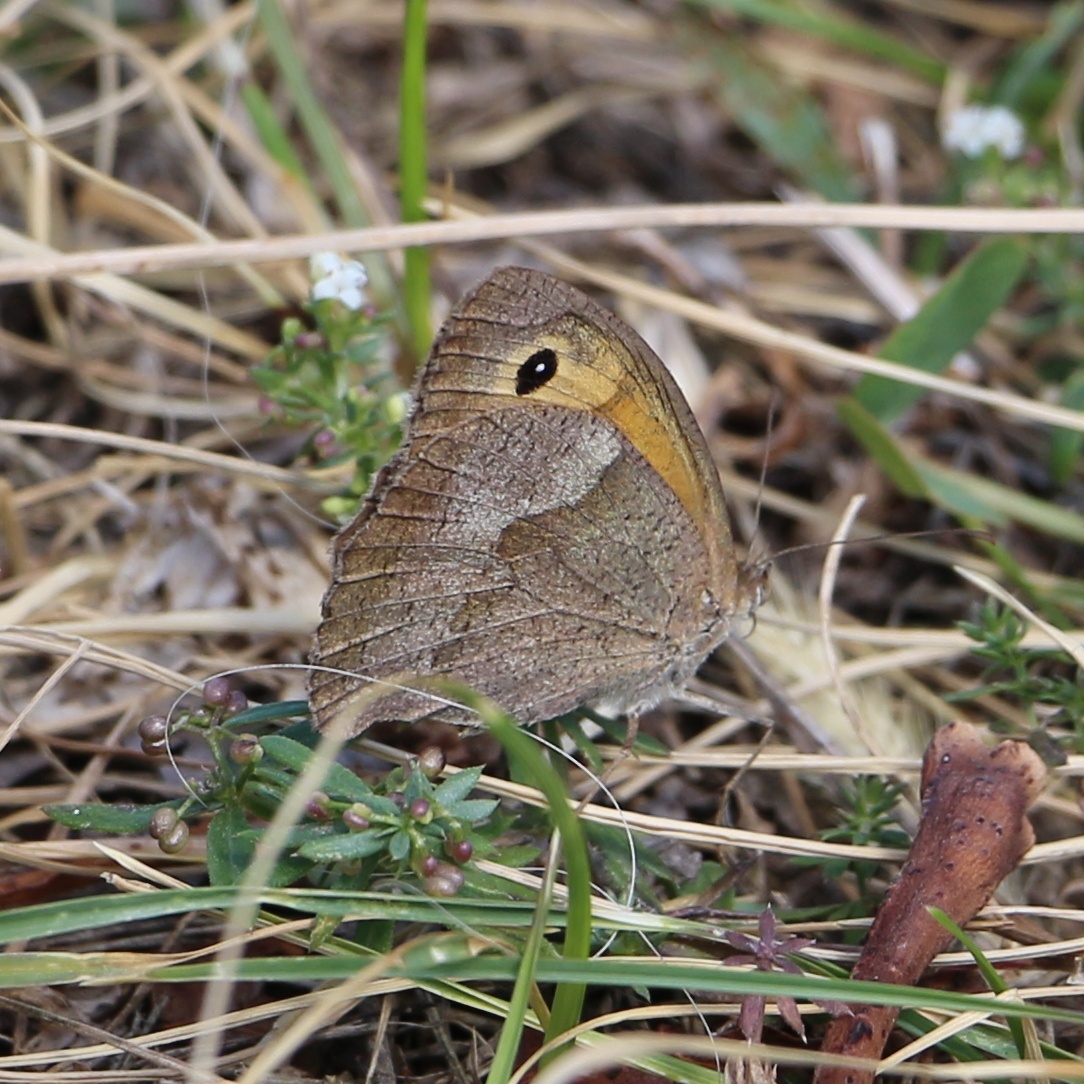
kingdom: Animalia
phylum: Arthropoda
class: Insecta
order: Lepidoptera
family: Nymphalidae
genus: Maniola
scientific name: Maniola jurtina
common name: Meadow brown
